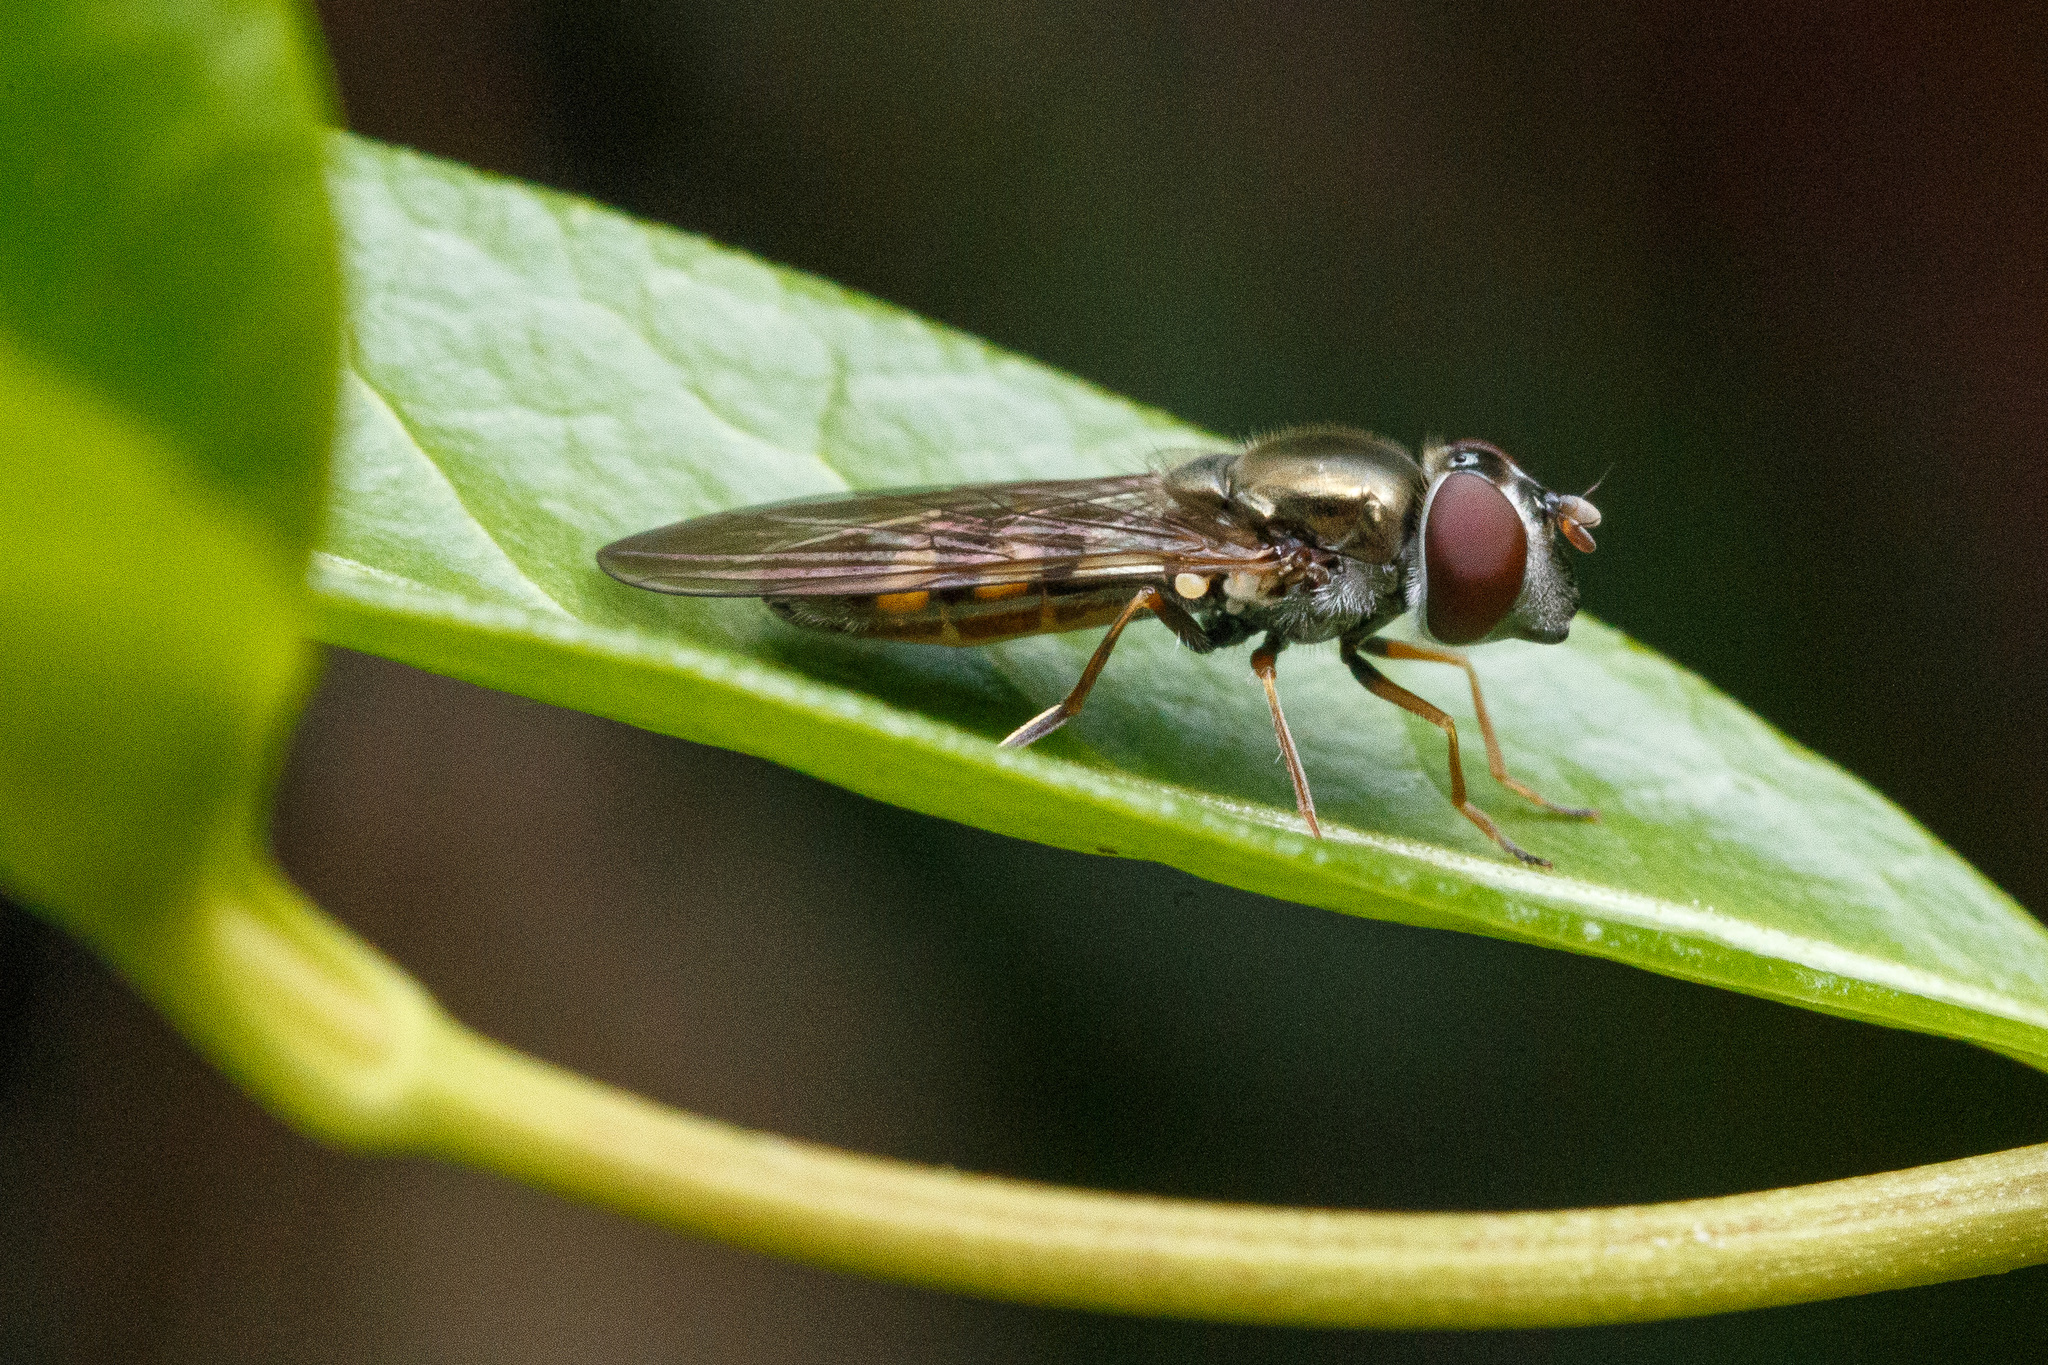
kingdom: Animalia
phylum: Arthropoda
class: Insecta
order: Diptera
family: Syrphidae
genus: Platycheirus
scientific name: Platycheirus trichopus
